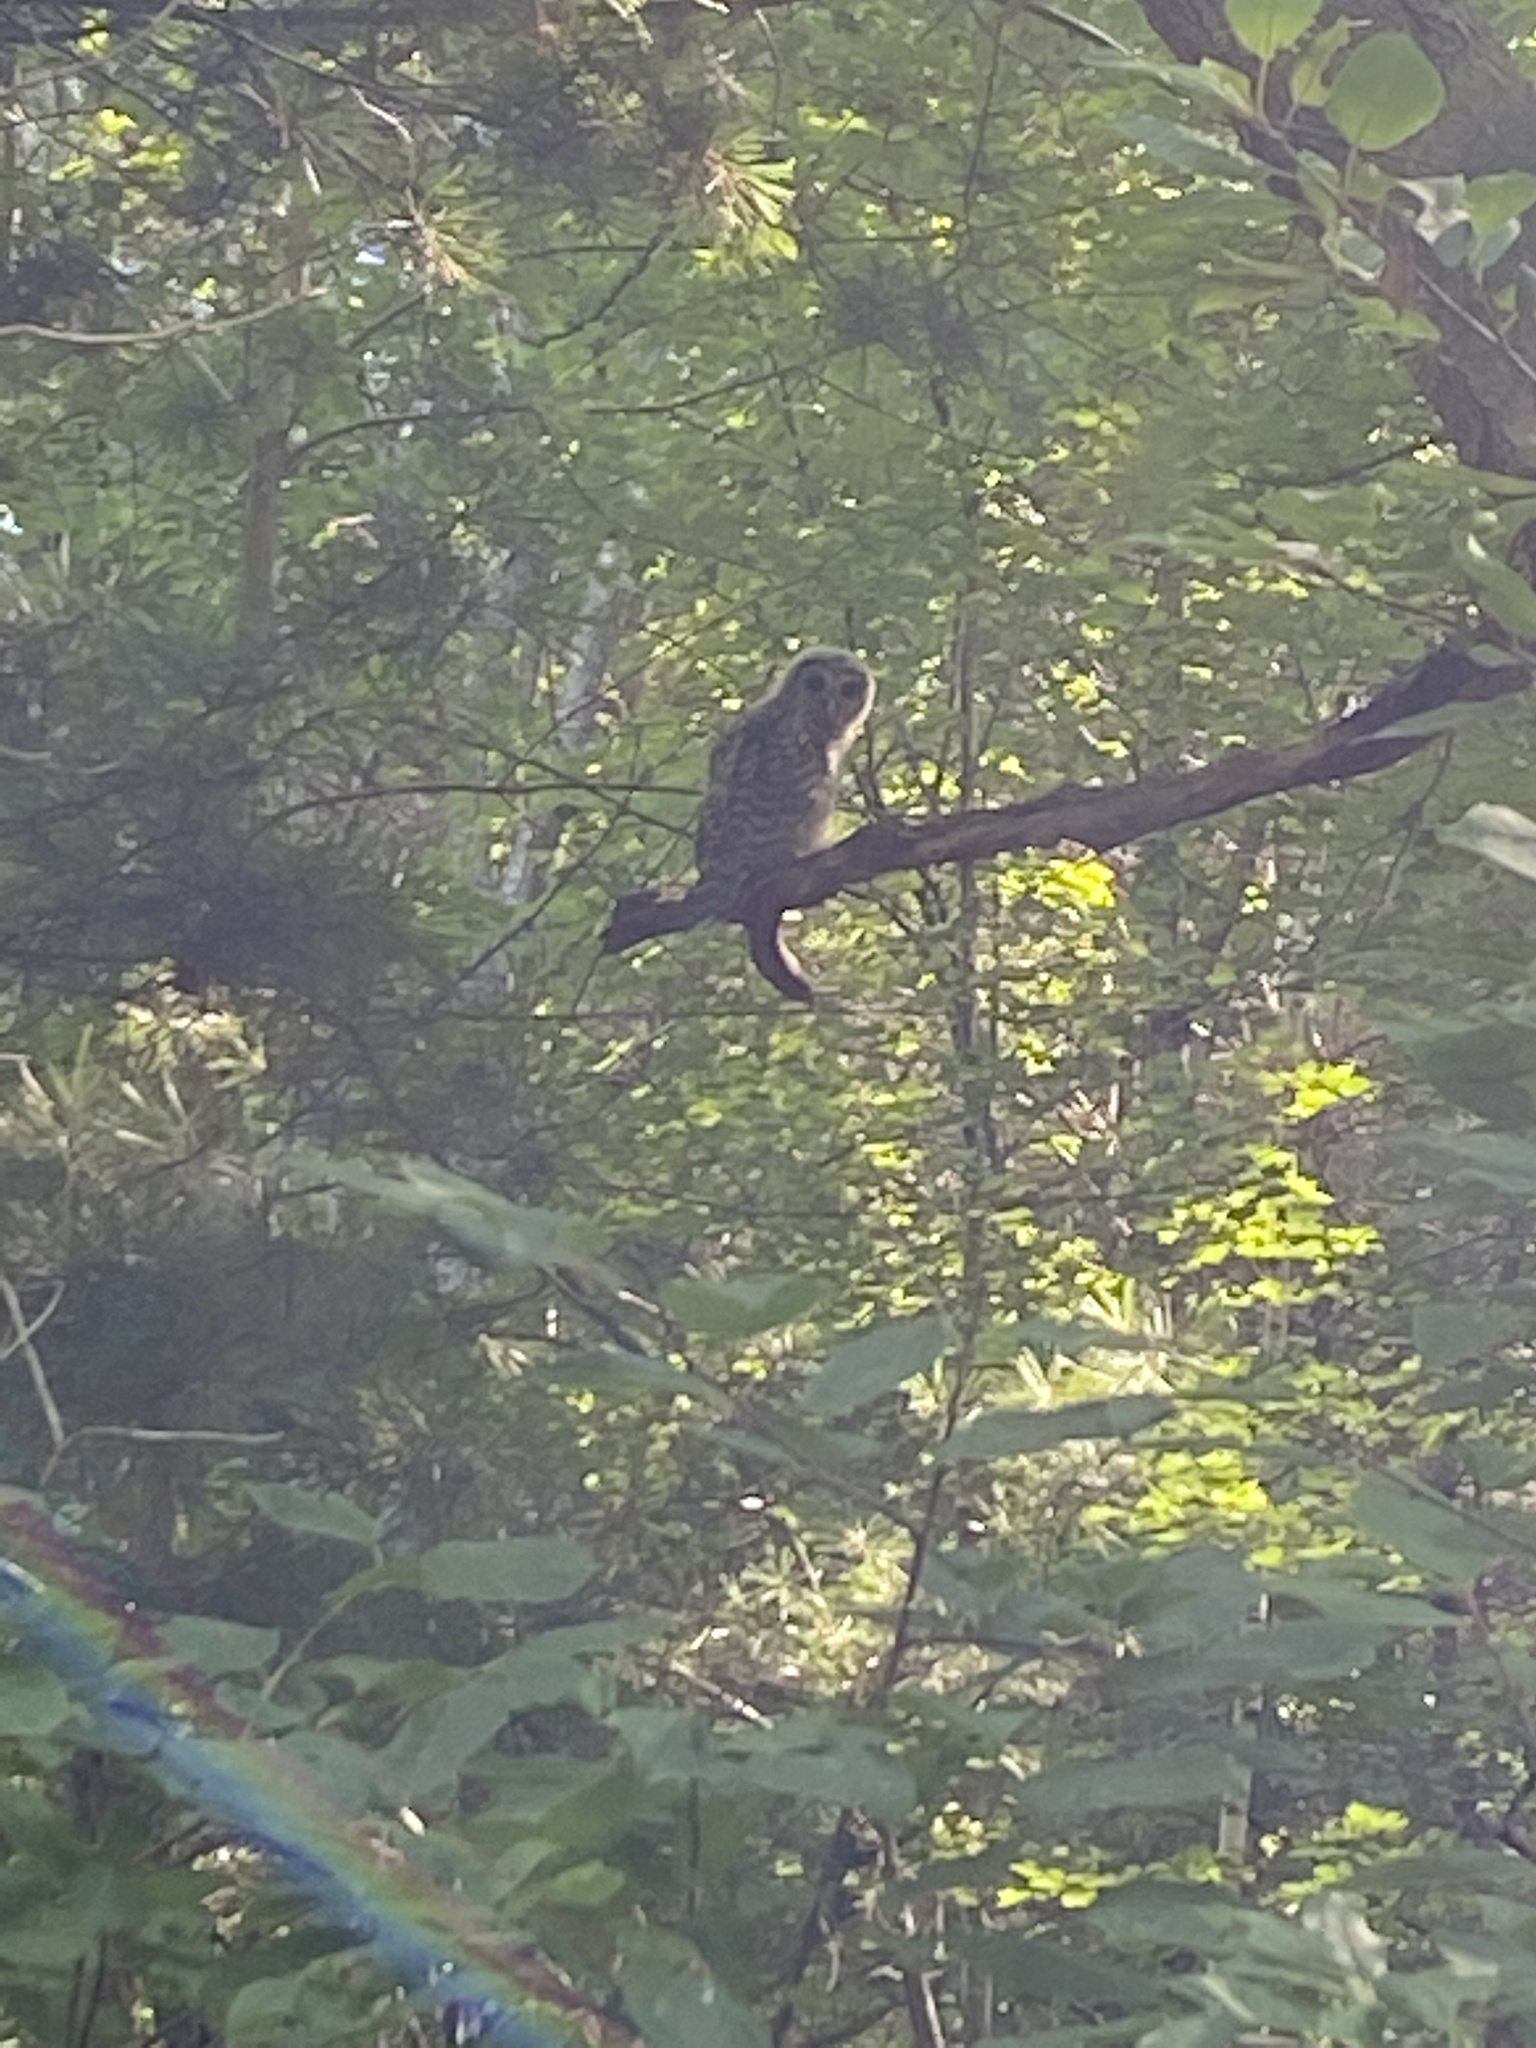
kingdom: Animalia
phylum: Chordata
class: Aves
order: Strigiformes
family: Strigidae
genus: Strix
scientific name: Strix varia
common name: Barred owl
